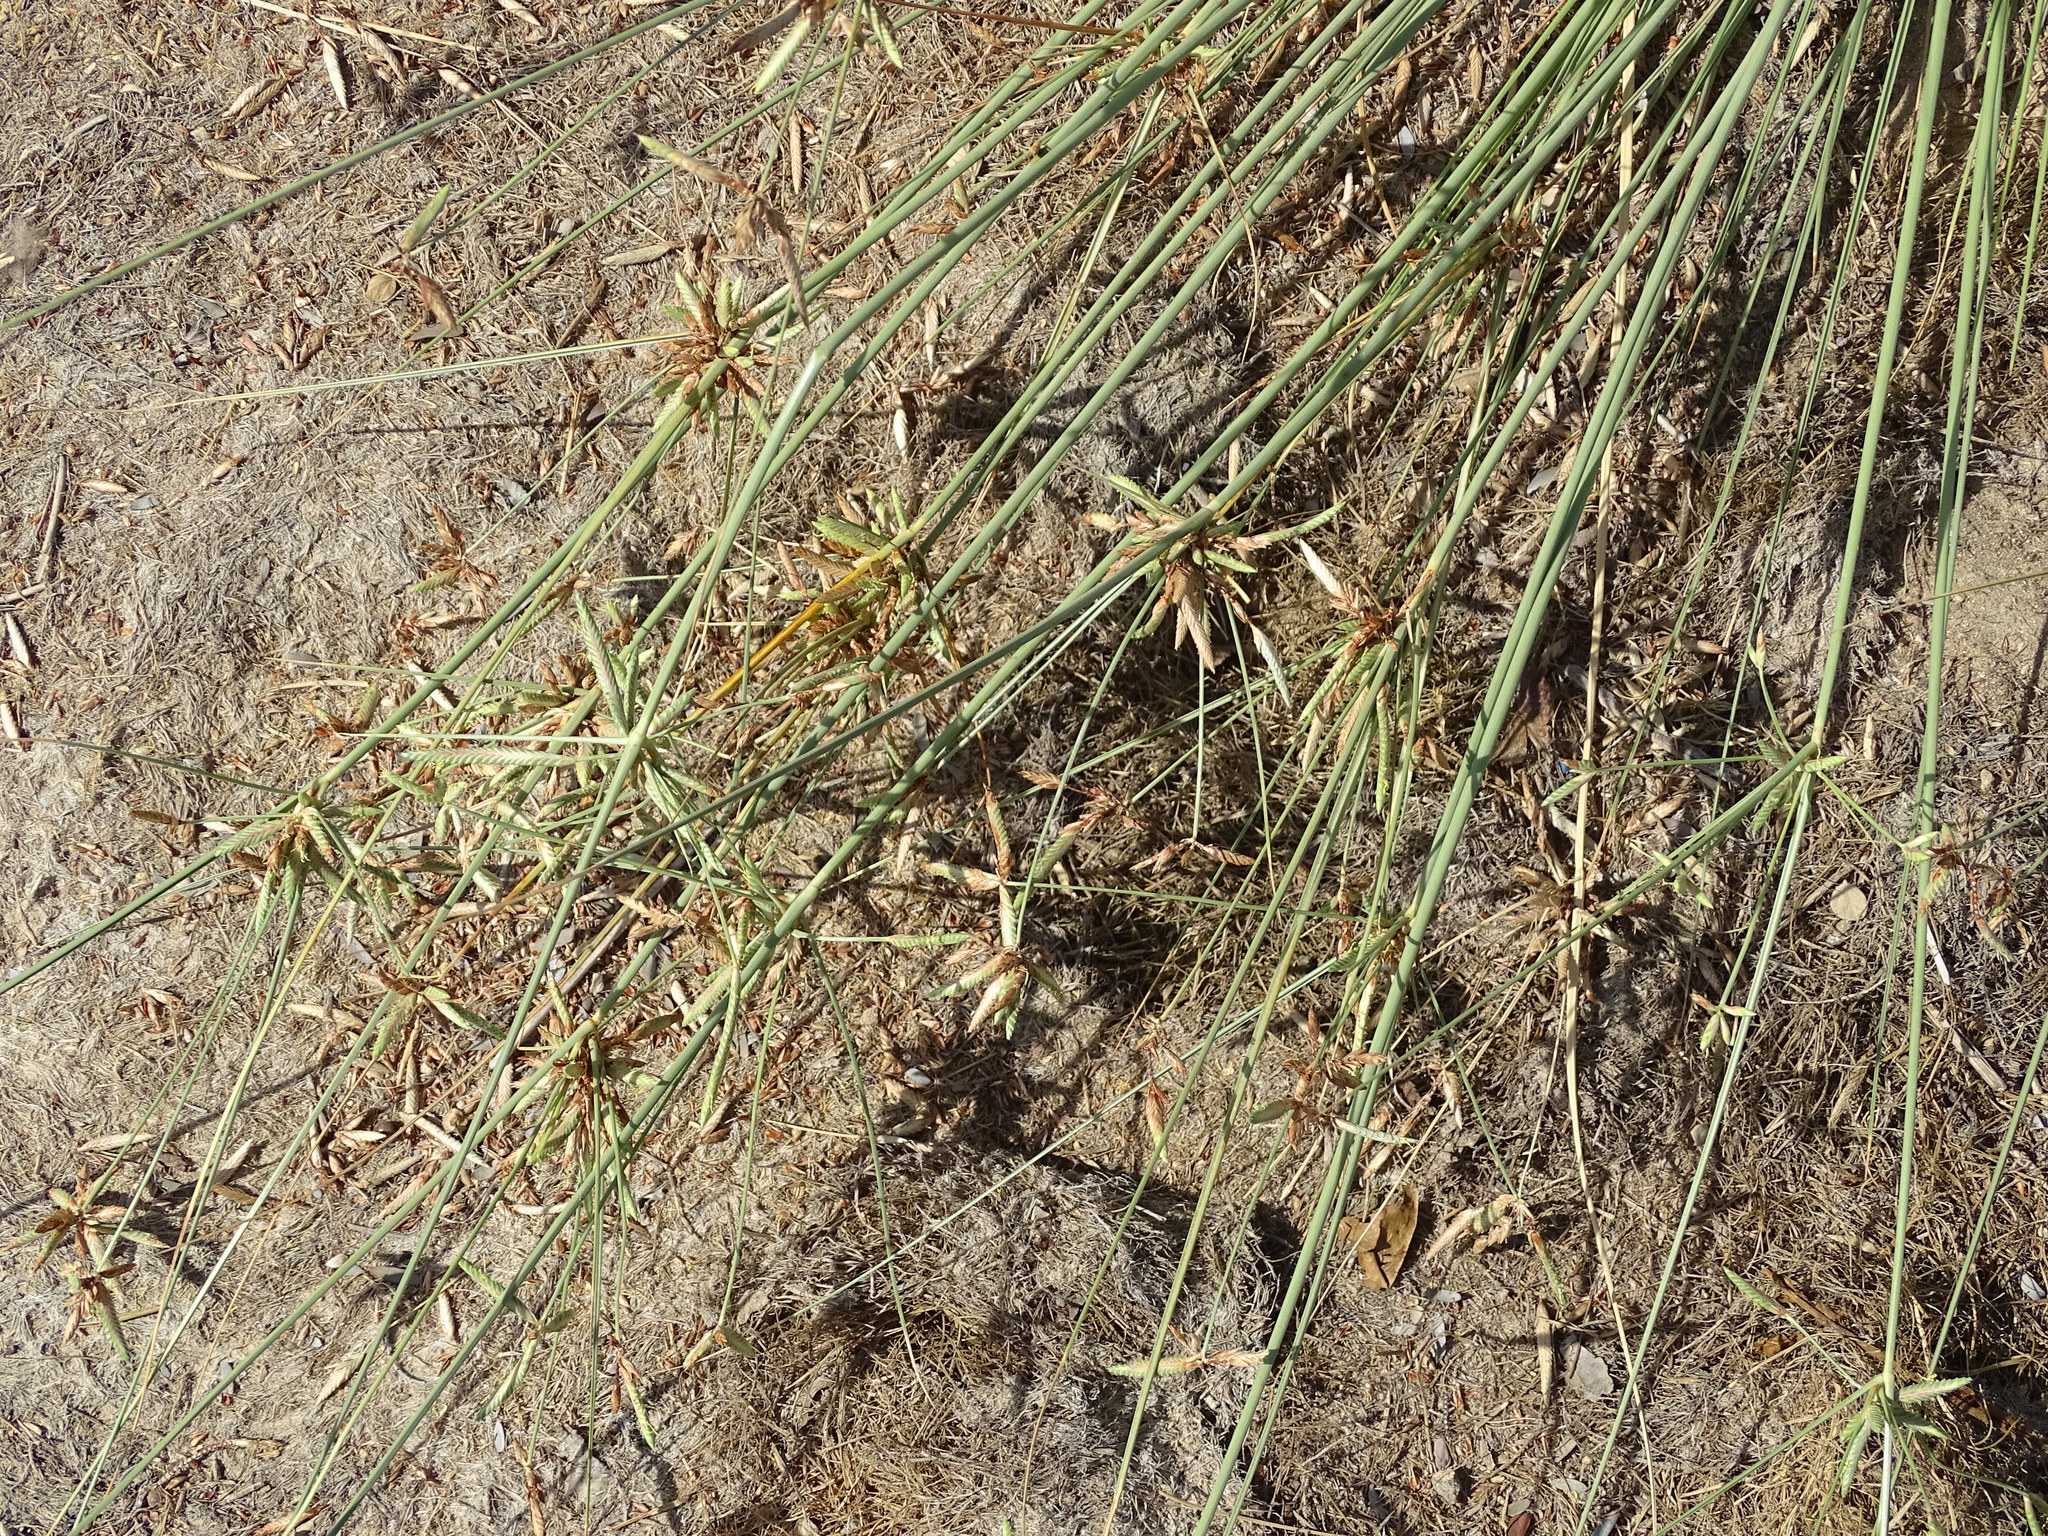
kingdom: Plantae
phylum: Tracheophyta
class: Liliopsida
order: Poales
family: Cyperaceae
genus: Cyperus
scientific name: Cyperus conglomeratus
